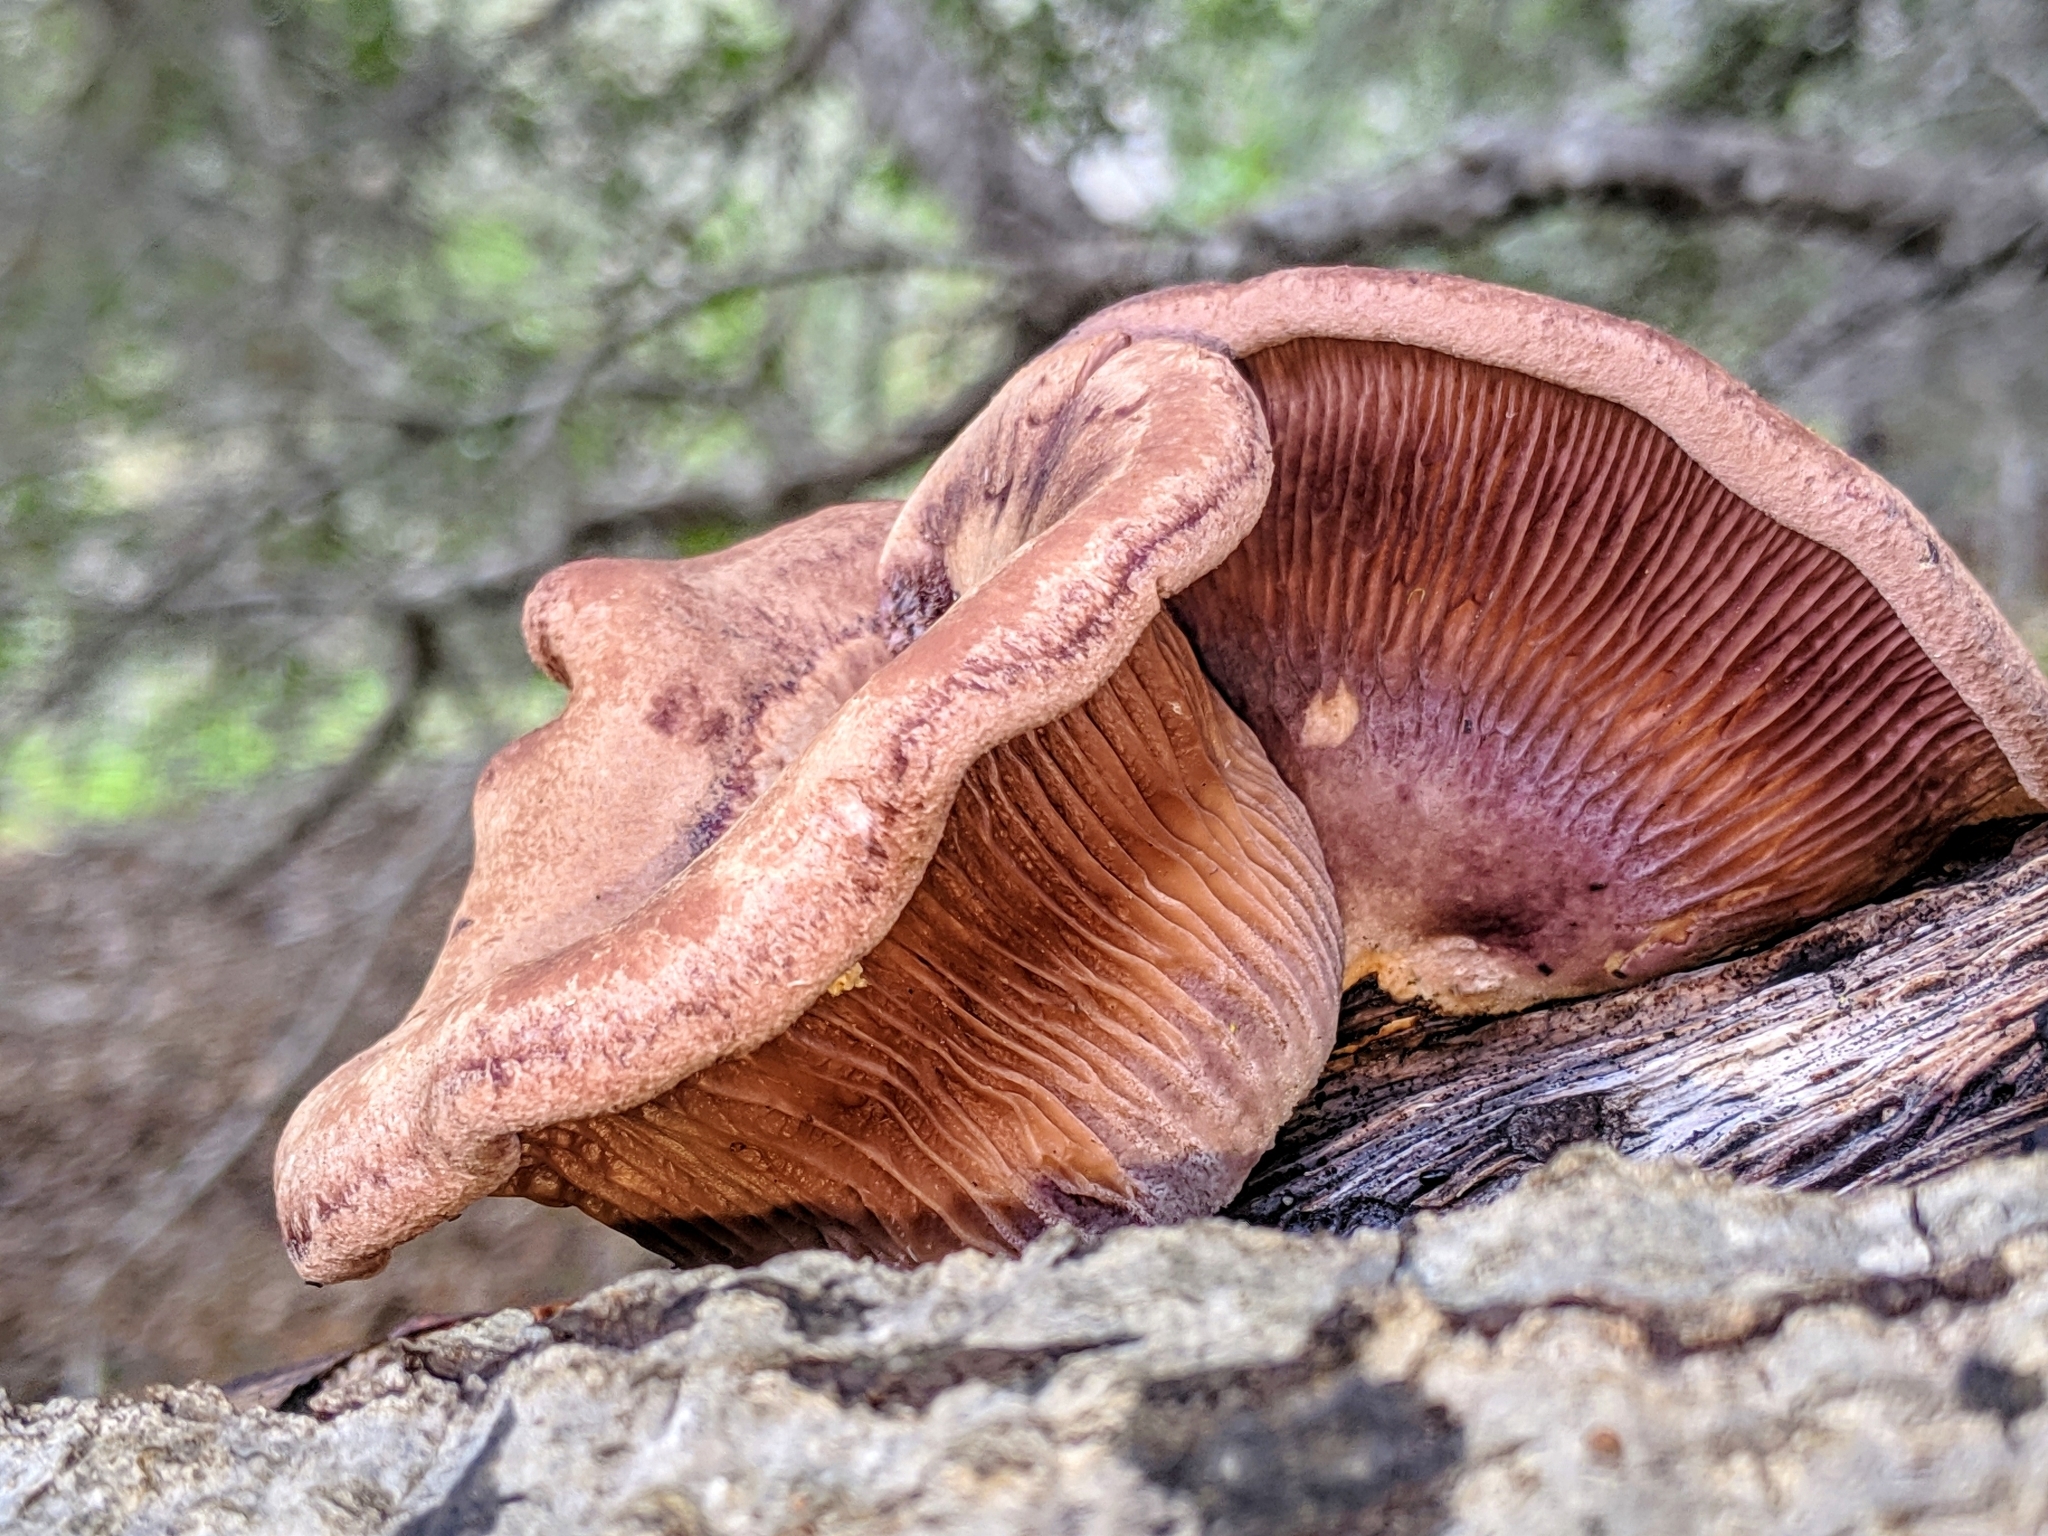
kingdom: Fungi
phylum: Basidiomycota
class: Agaricomycetes
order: Polyporales
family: Panaceae
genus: Panus
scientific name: Panus conchatus
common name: Lilac oysterling
